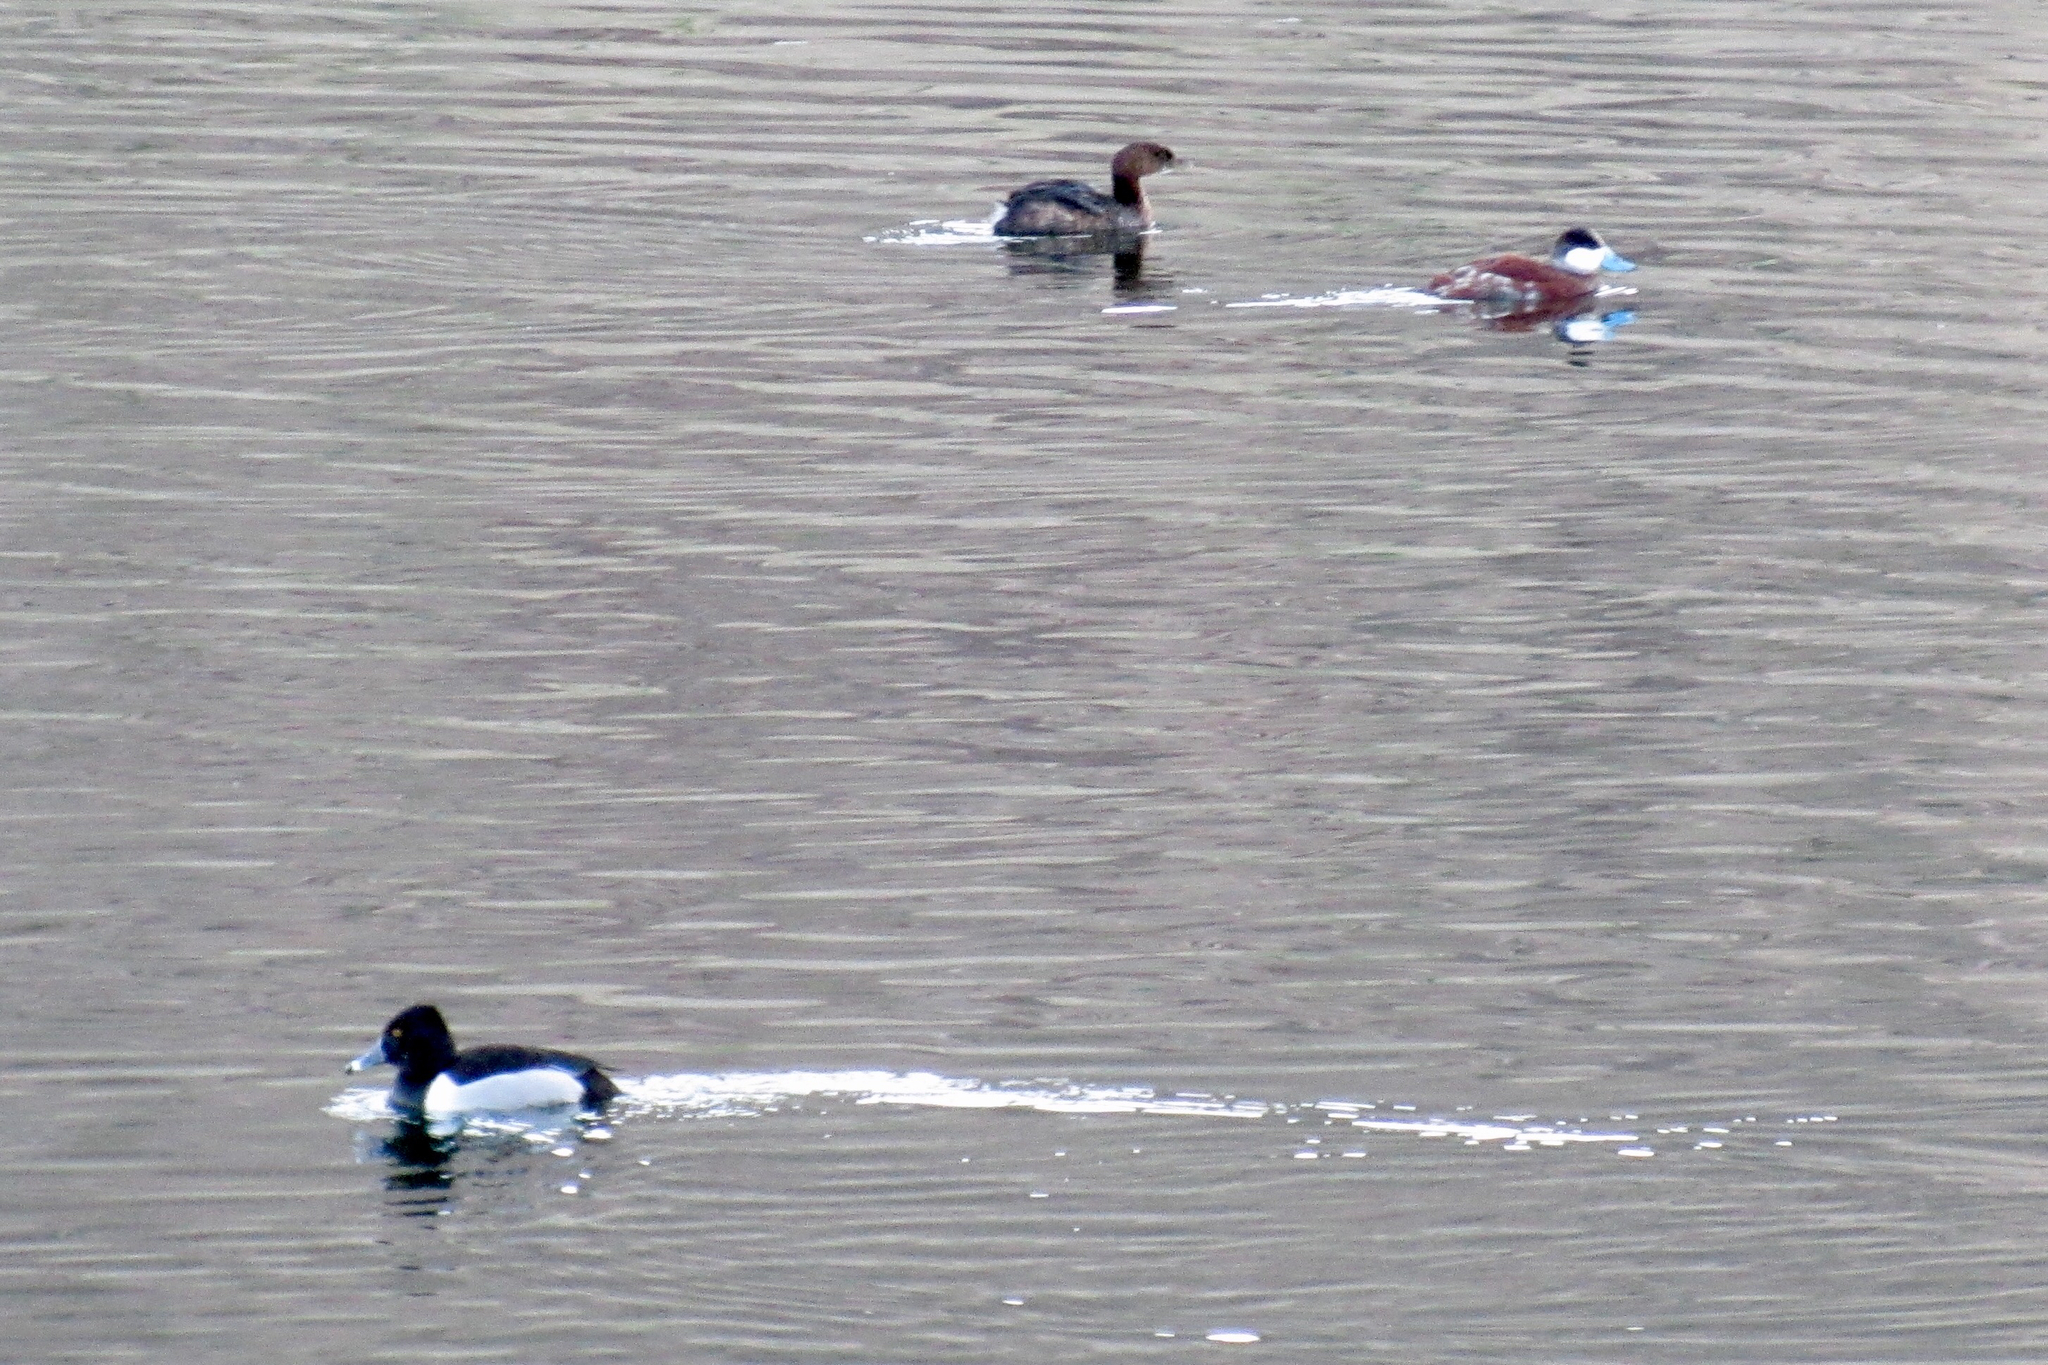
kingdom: Animalia
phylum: Chordata
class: Aves
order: Anseriformes
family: Anatidae
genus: Oxyura
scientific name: Oxyura jamaicensis
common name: Ruddy duck
